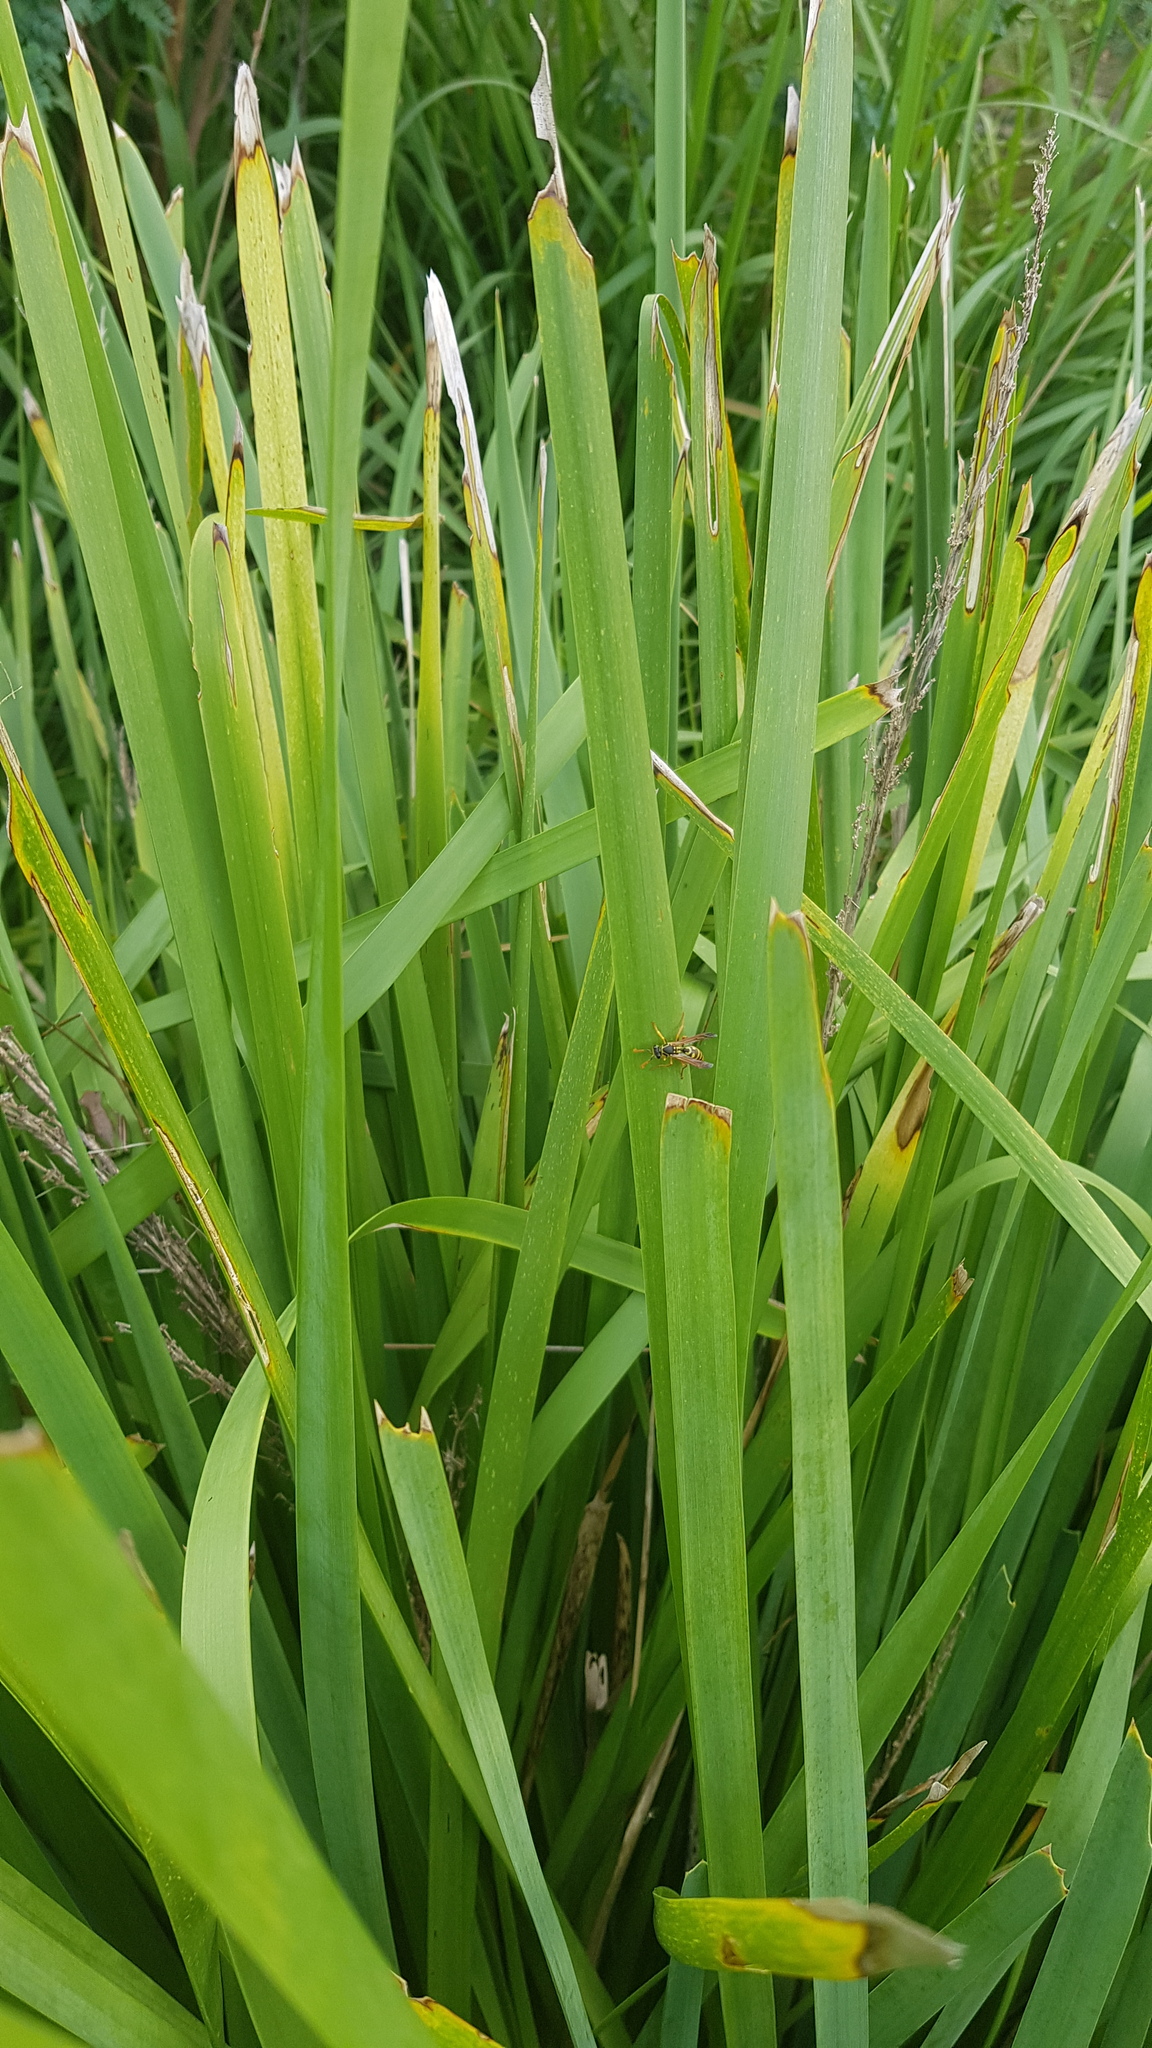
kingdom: Animalia
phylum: Arthropoda
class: Insecta
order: Hymenoptera
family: Eumenidae
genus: Polistes
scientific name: Polistes chinensis
